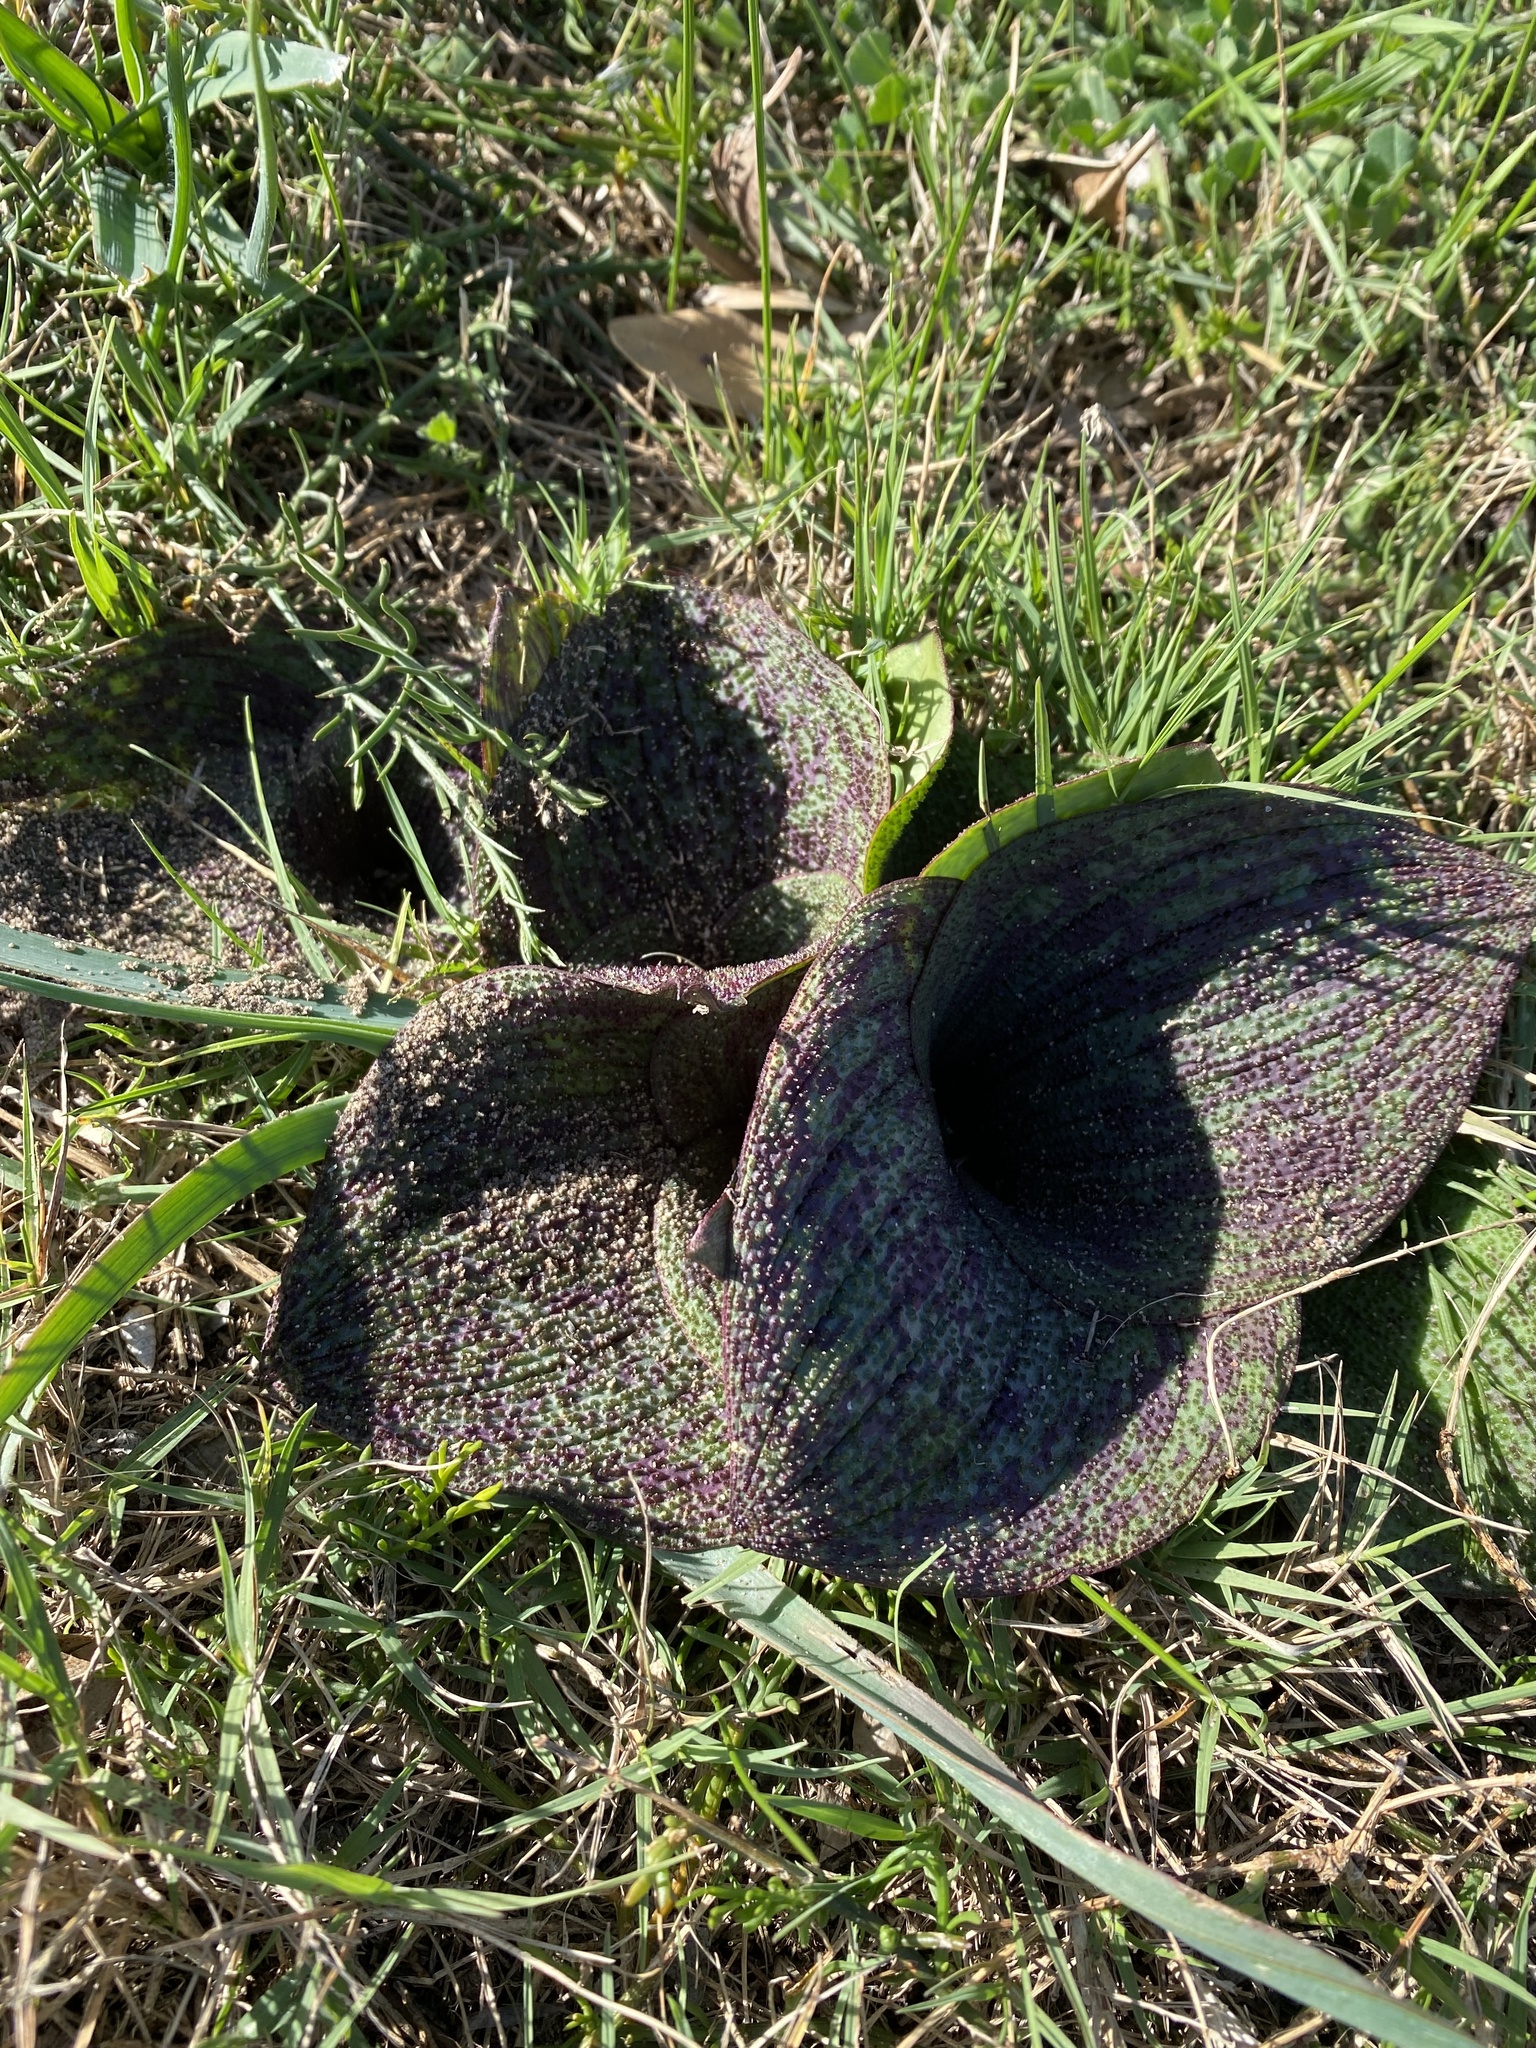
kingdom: Plantae
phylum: Tracheophyta
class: Liliopsida
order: Asparagales
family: Asparagaceae
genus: Massonia
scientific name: Massonia longipes
